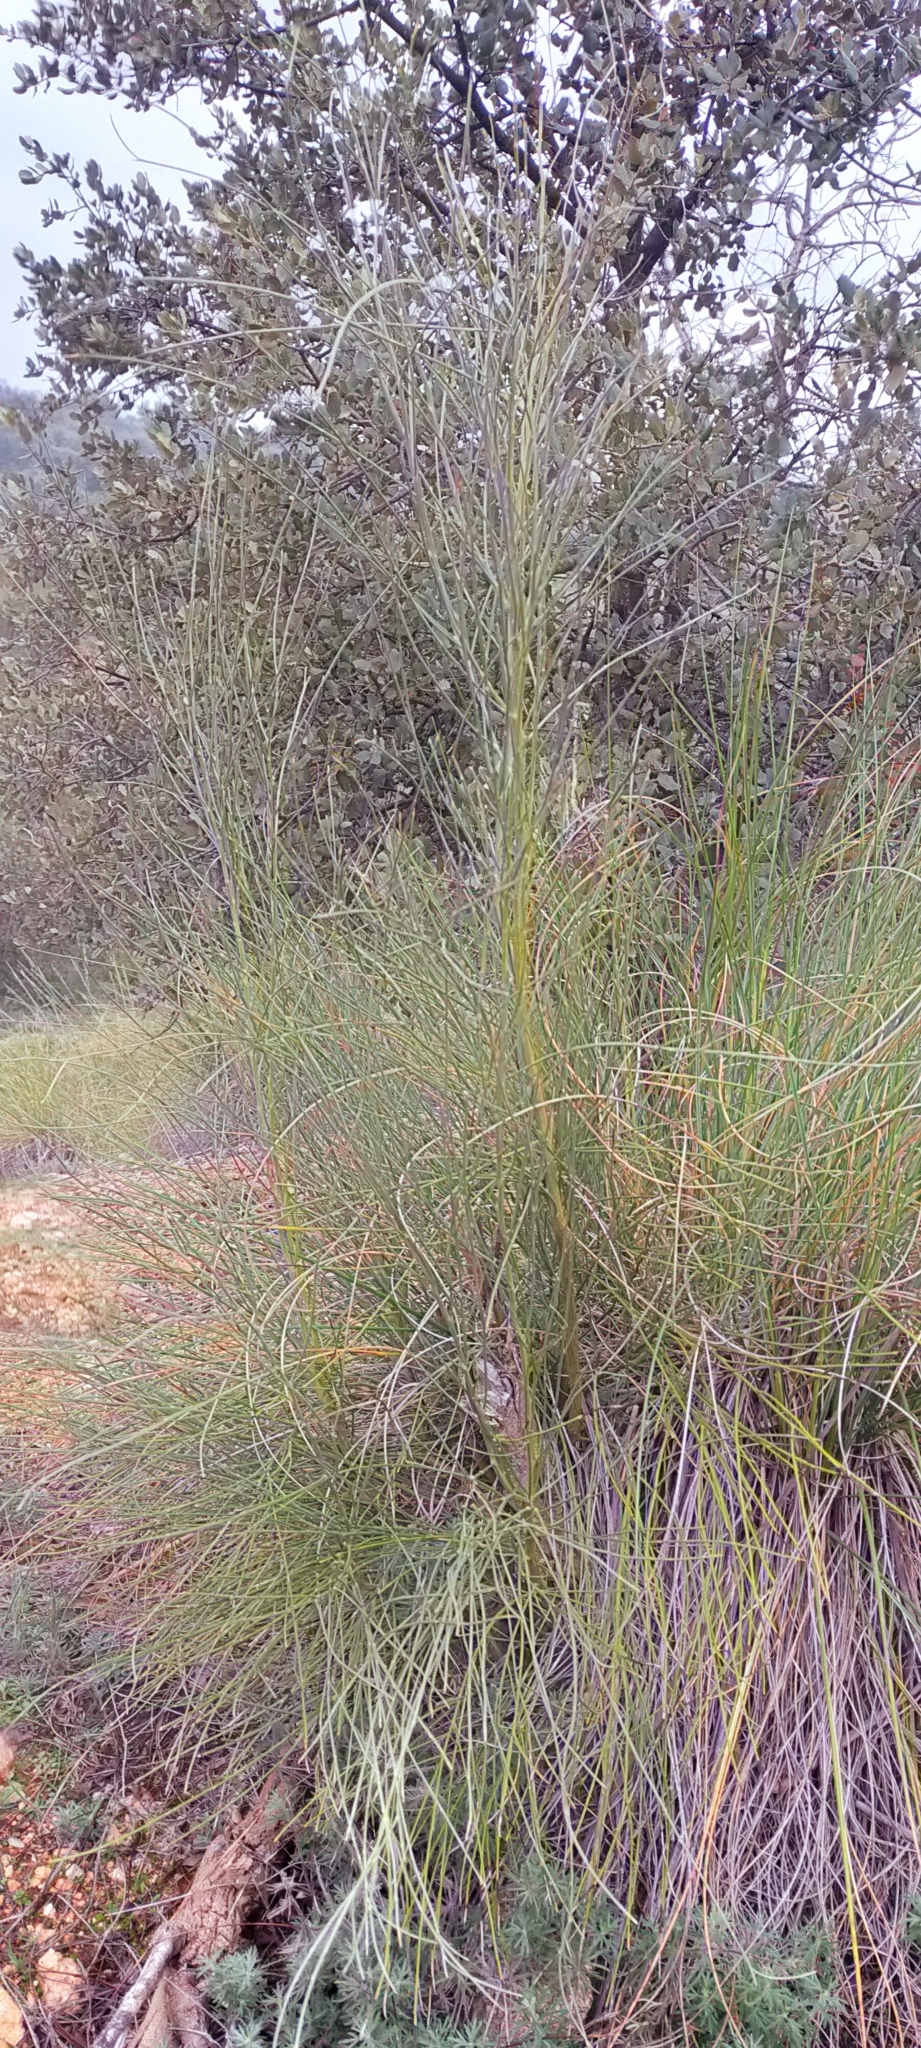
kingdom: Plantae
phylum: Tracheophyta
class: Magnoliopsida
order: Fabales
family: Fabaceae
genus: Retama
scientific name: Retama sphaerocarpa
